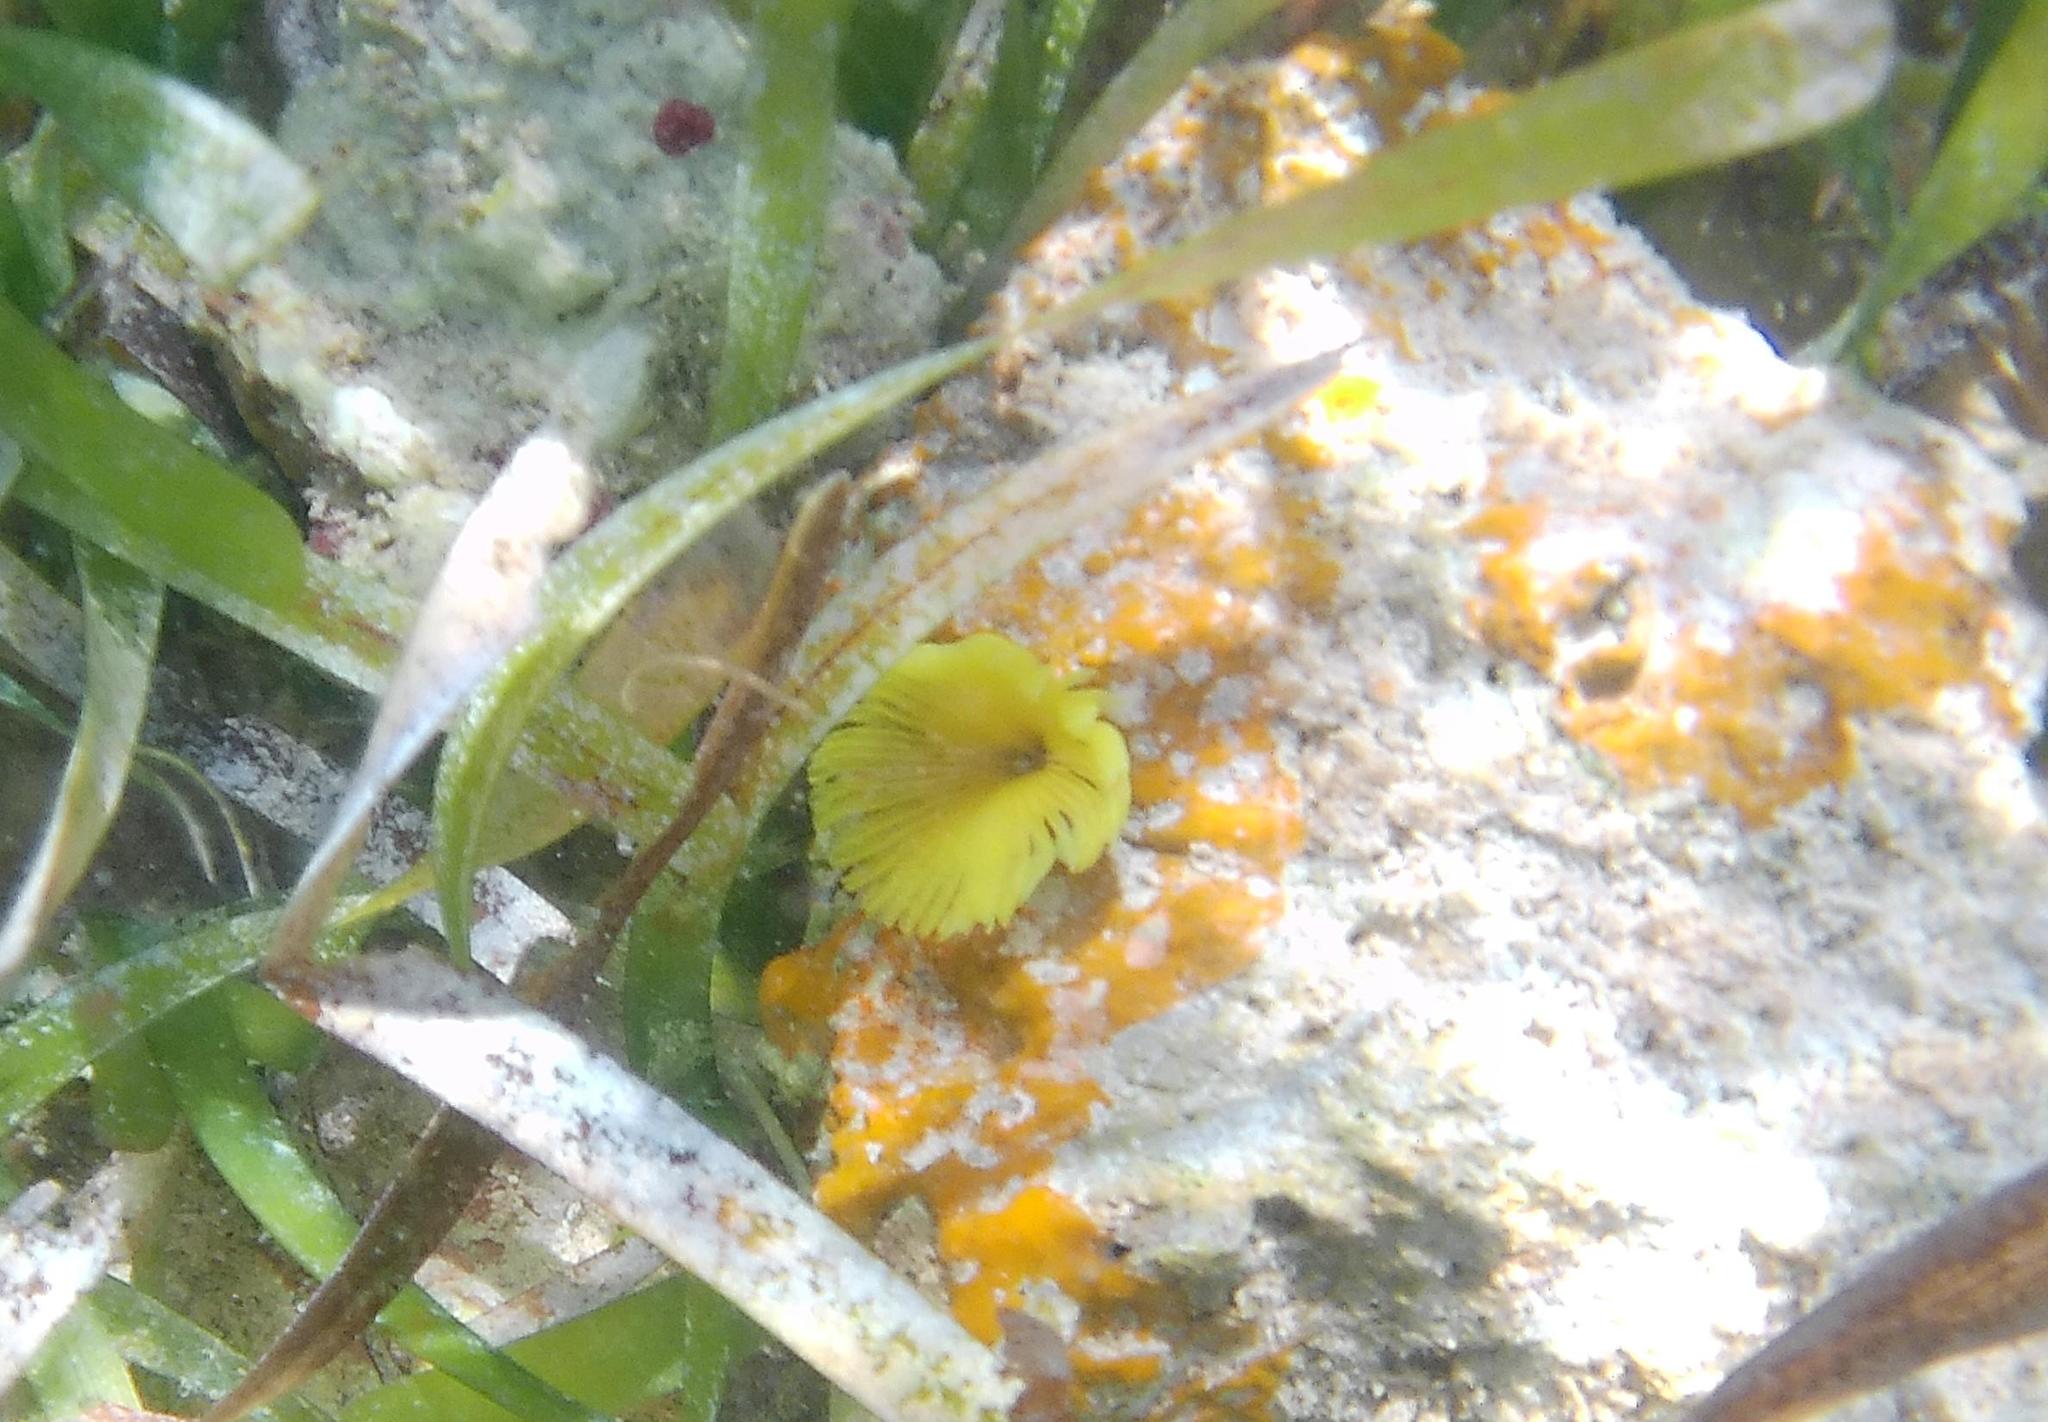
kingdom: Animalia
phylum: Annelida
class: Polychaeta
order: Sabellida
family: Sabellidae
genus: Notaulax
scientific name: Notaulax occidentalis
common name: Yellow fanworm
